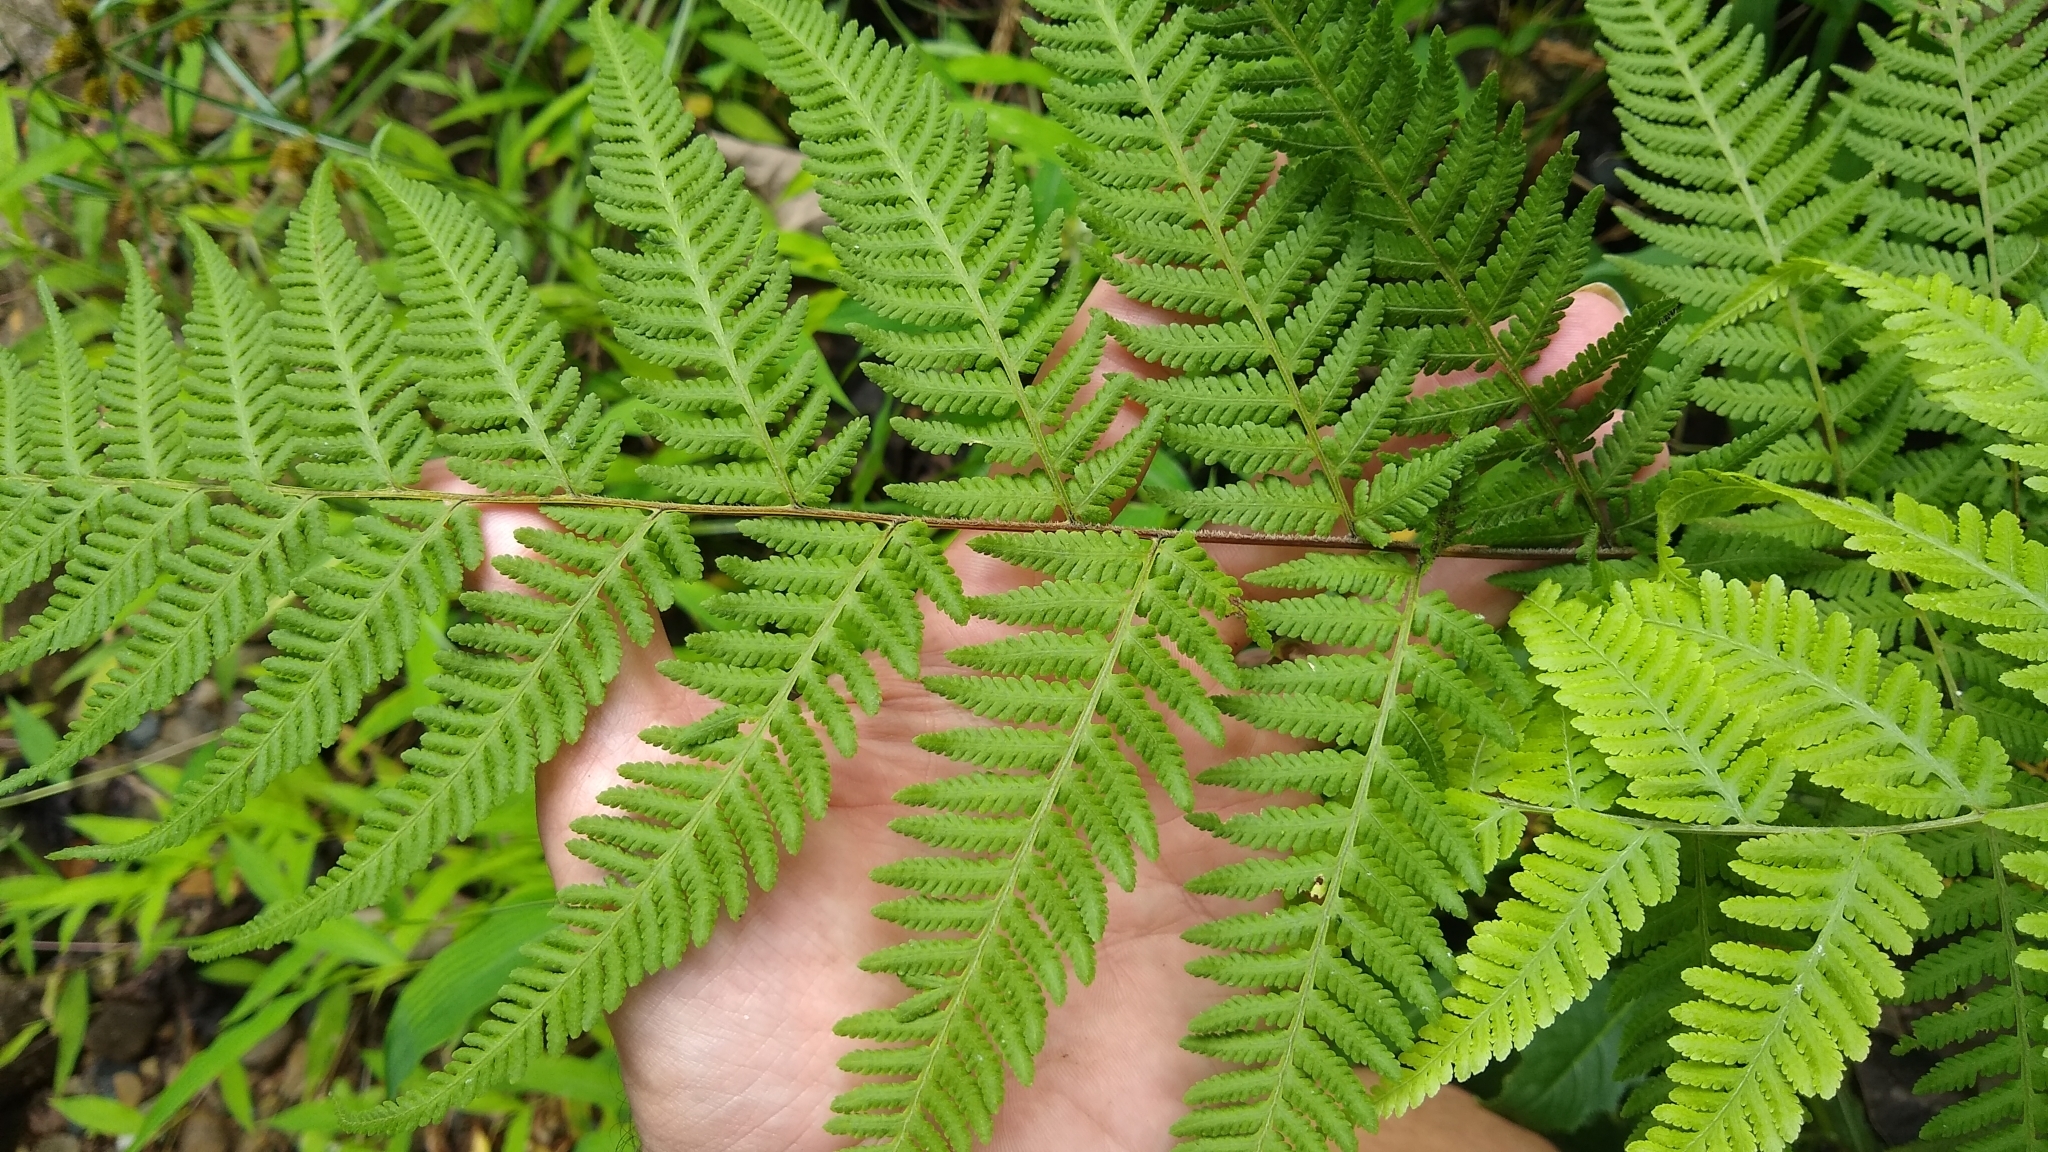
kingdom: Plantae
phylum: Tracheophyta
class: Polypodiopsida
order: Polypodiales
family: Thelypteridaceae
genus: Macrothelypteris
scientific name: Macrothelypteris torresiana
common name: Swordfern
